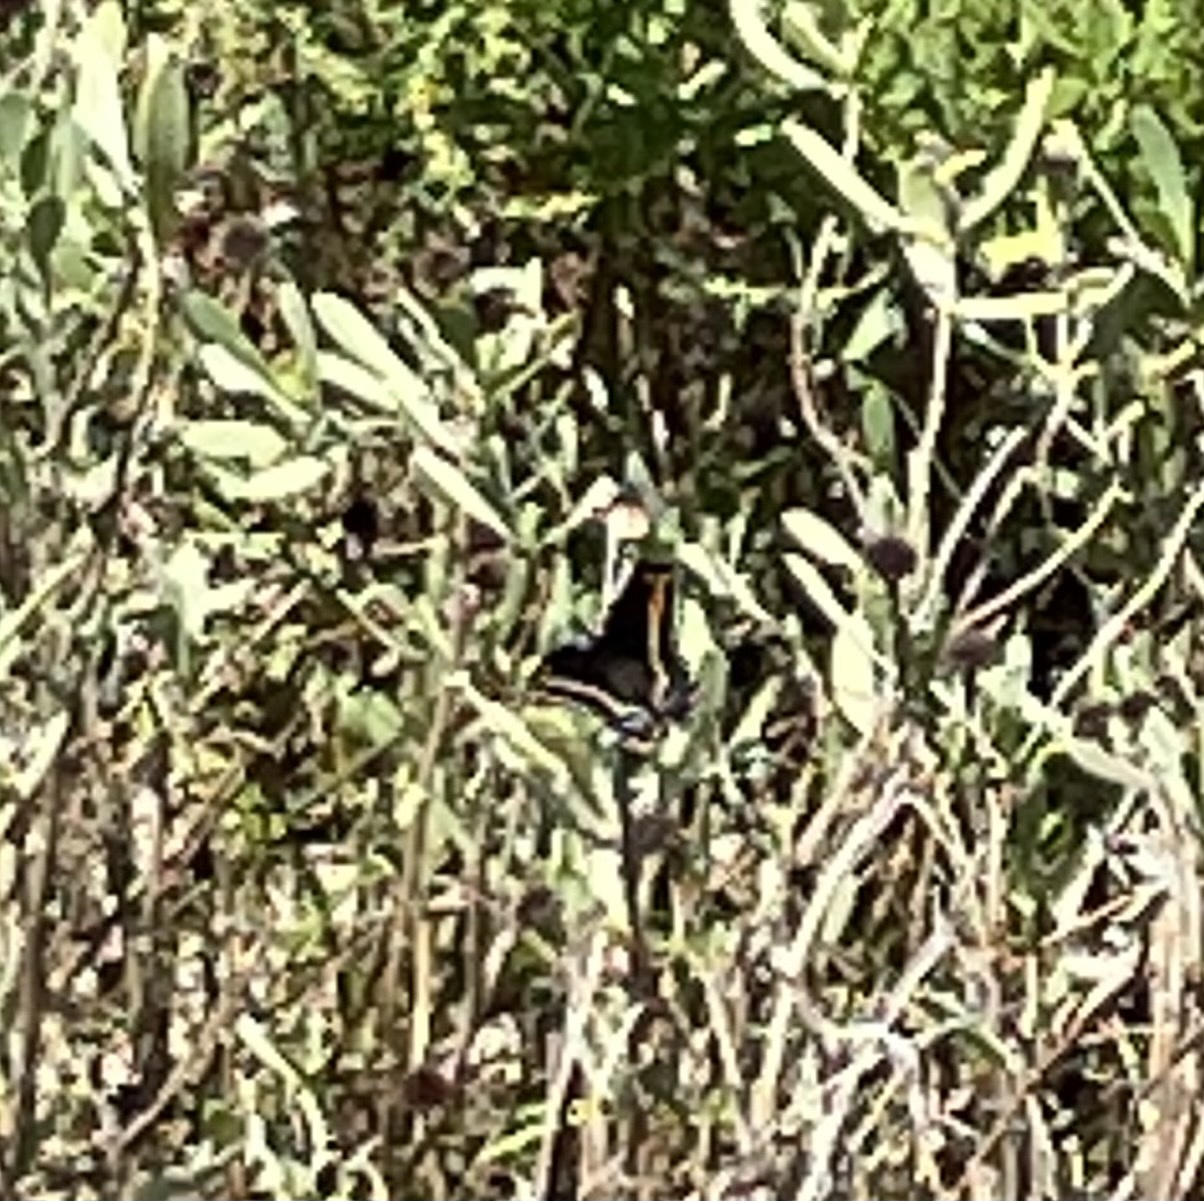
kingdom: Animalia
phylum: Arthropoda
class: Insecta
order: Lepidoptera
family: Papilionidae
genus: Papilio
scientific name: Papilio polyxenes
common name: Black swallowtail
